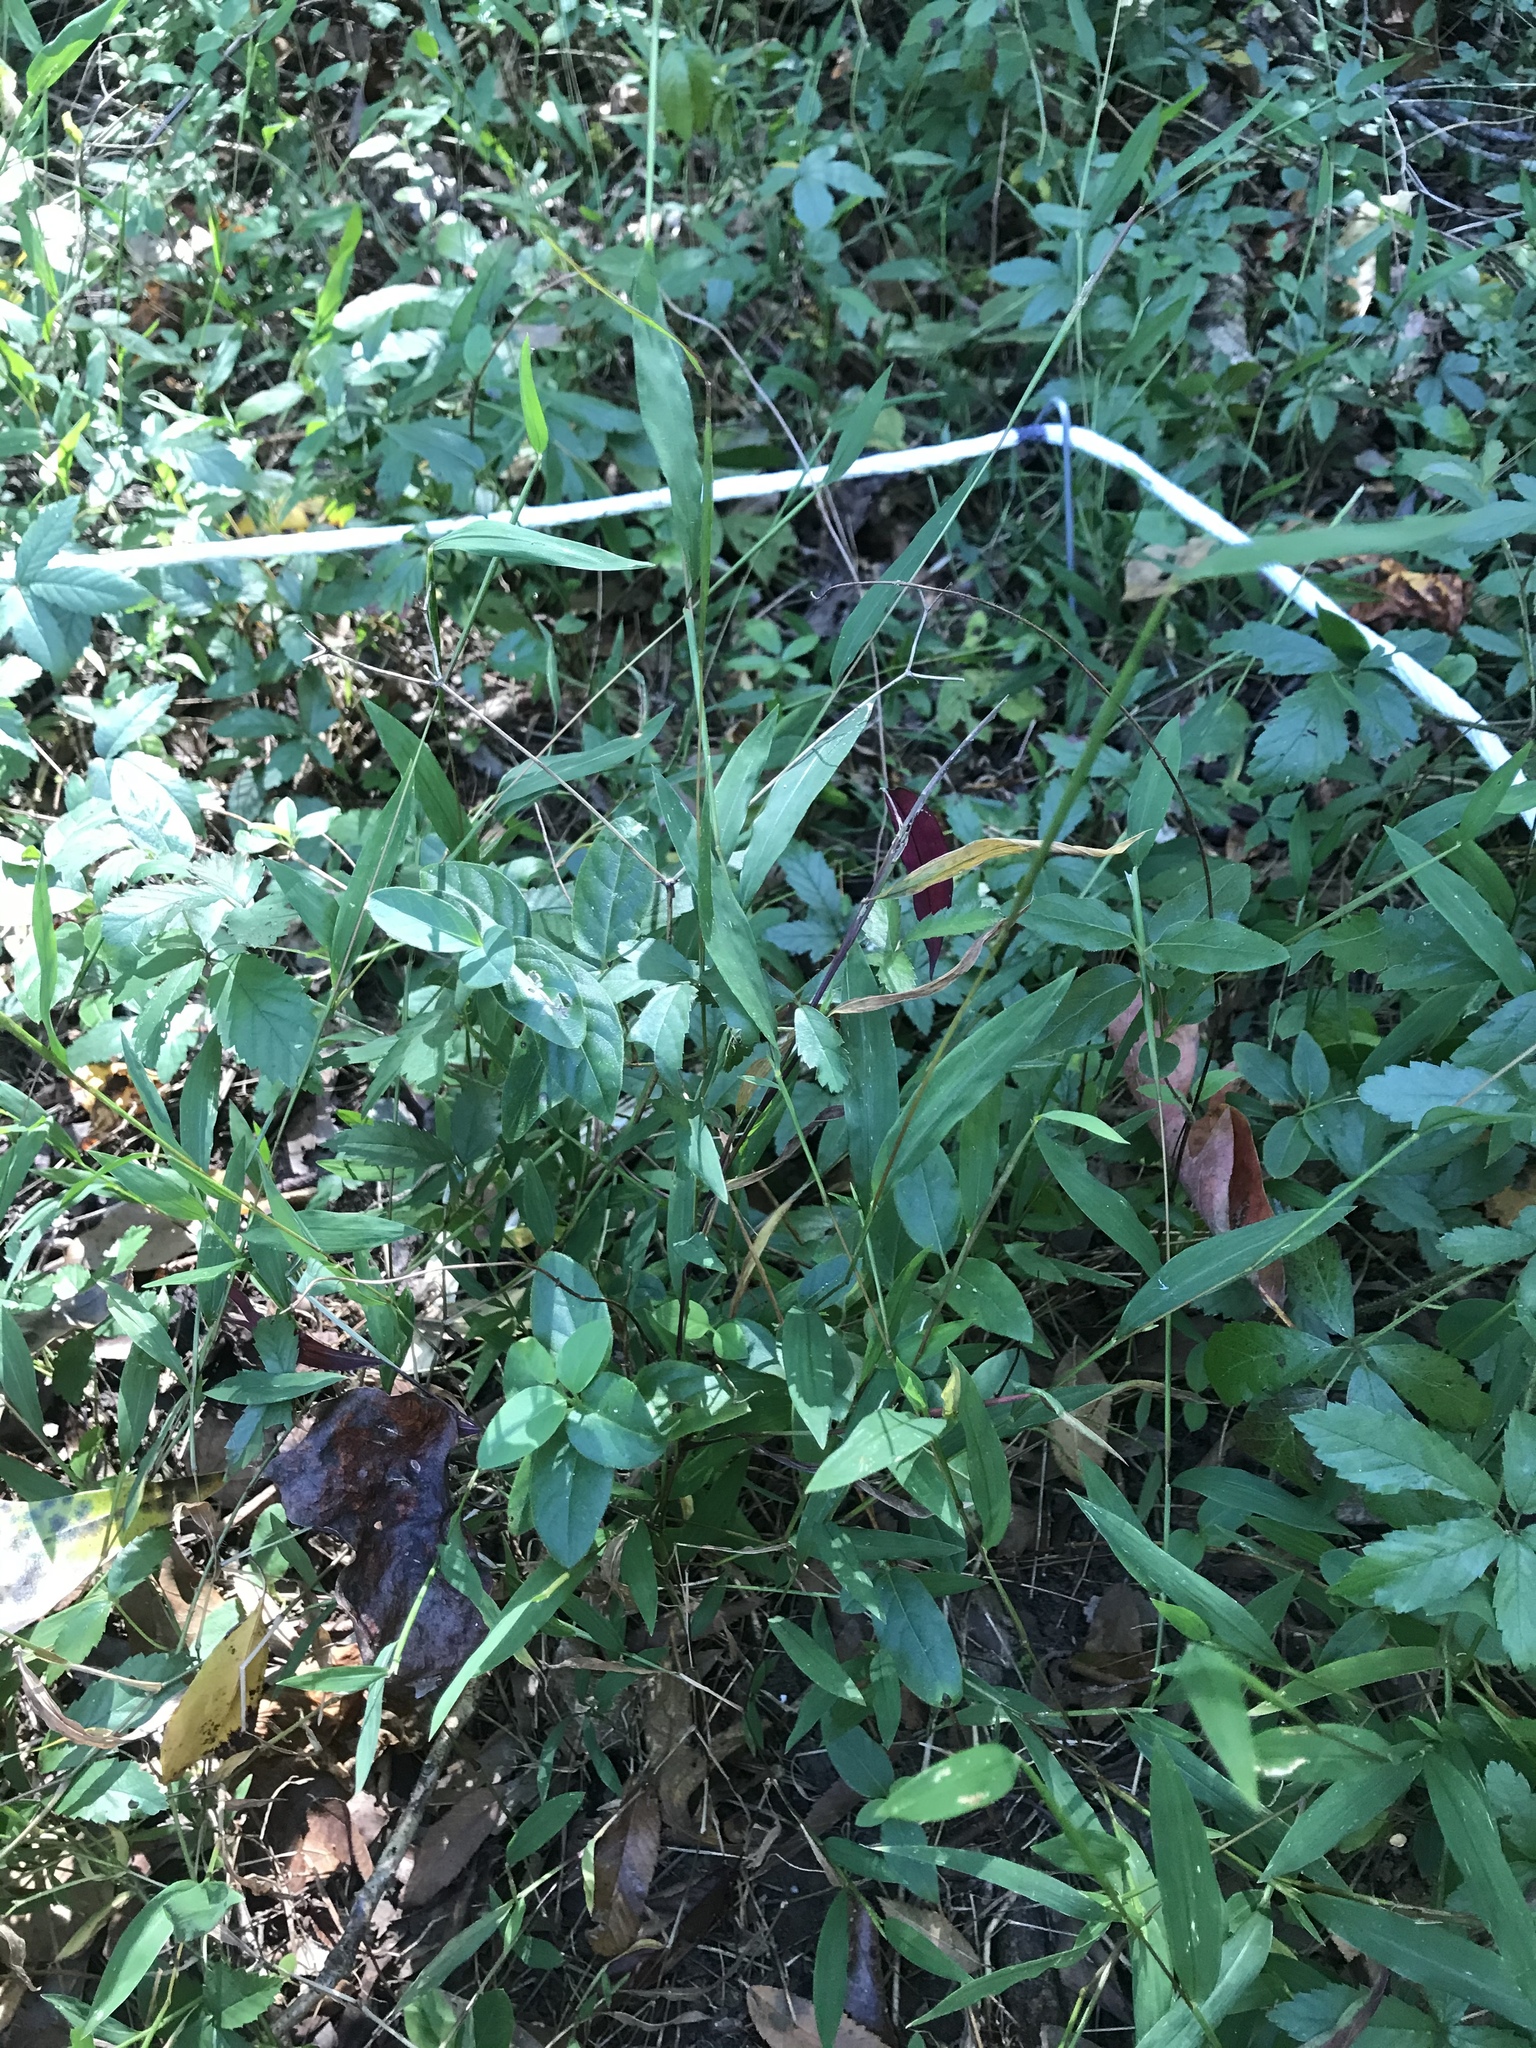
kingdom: Plantae
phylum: Tracheophyta
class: Liliopsida
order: Poales
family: Poaceae
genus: Microstegium
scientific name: Microstegium vimineum
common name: Japanese stiltgrass
